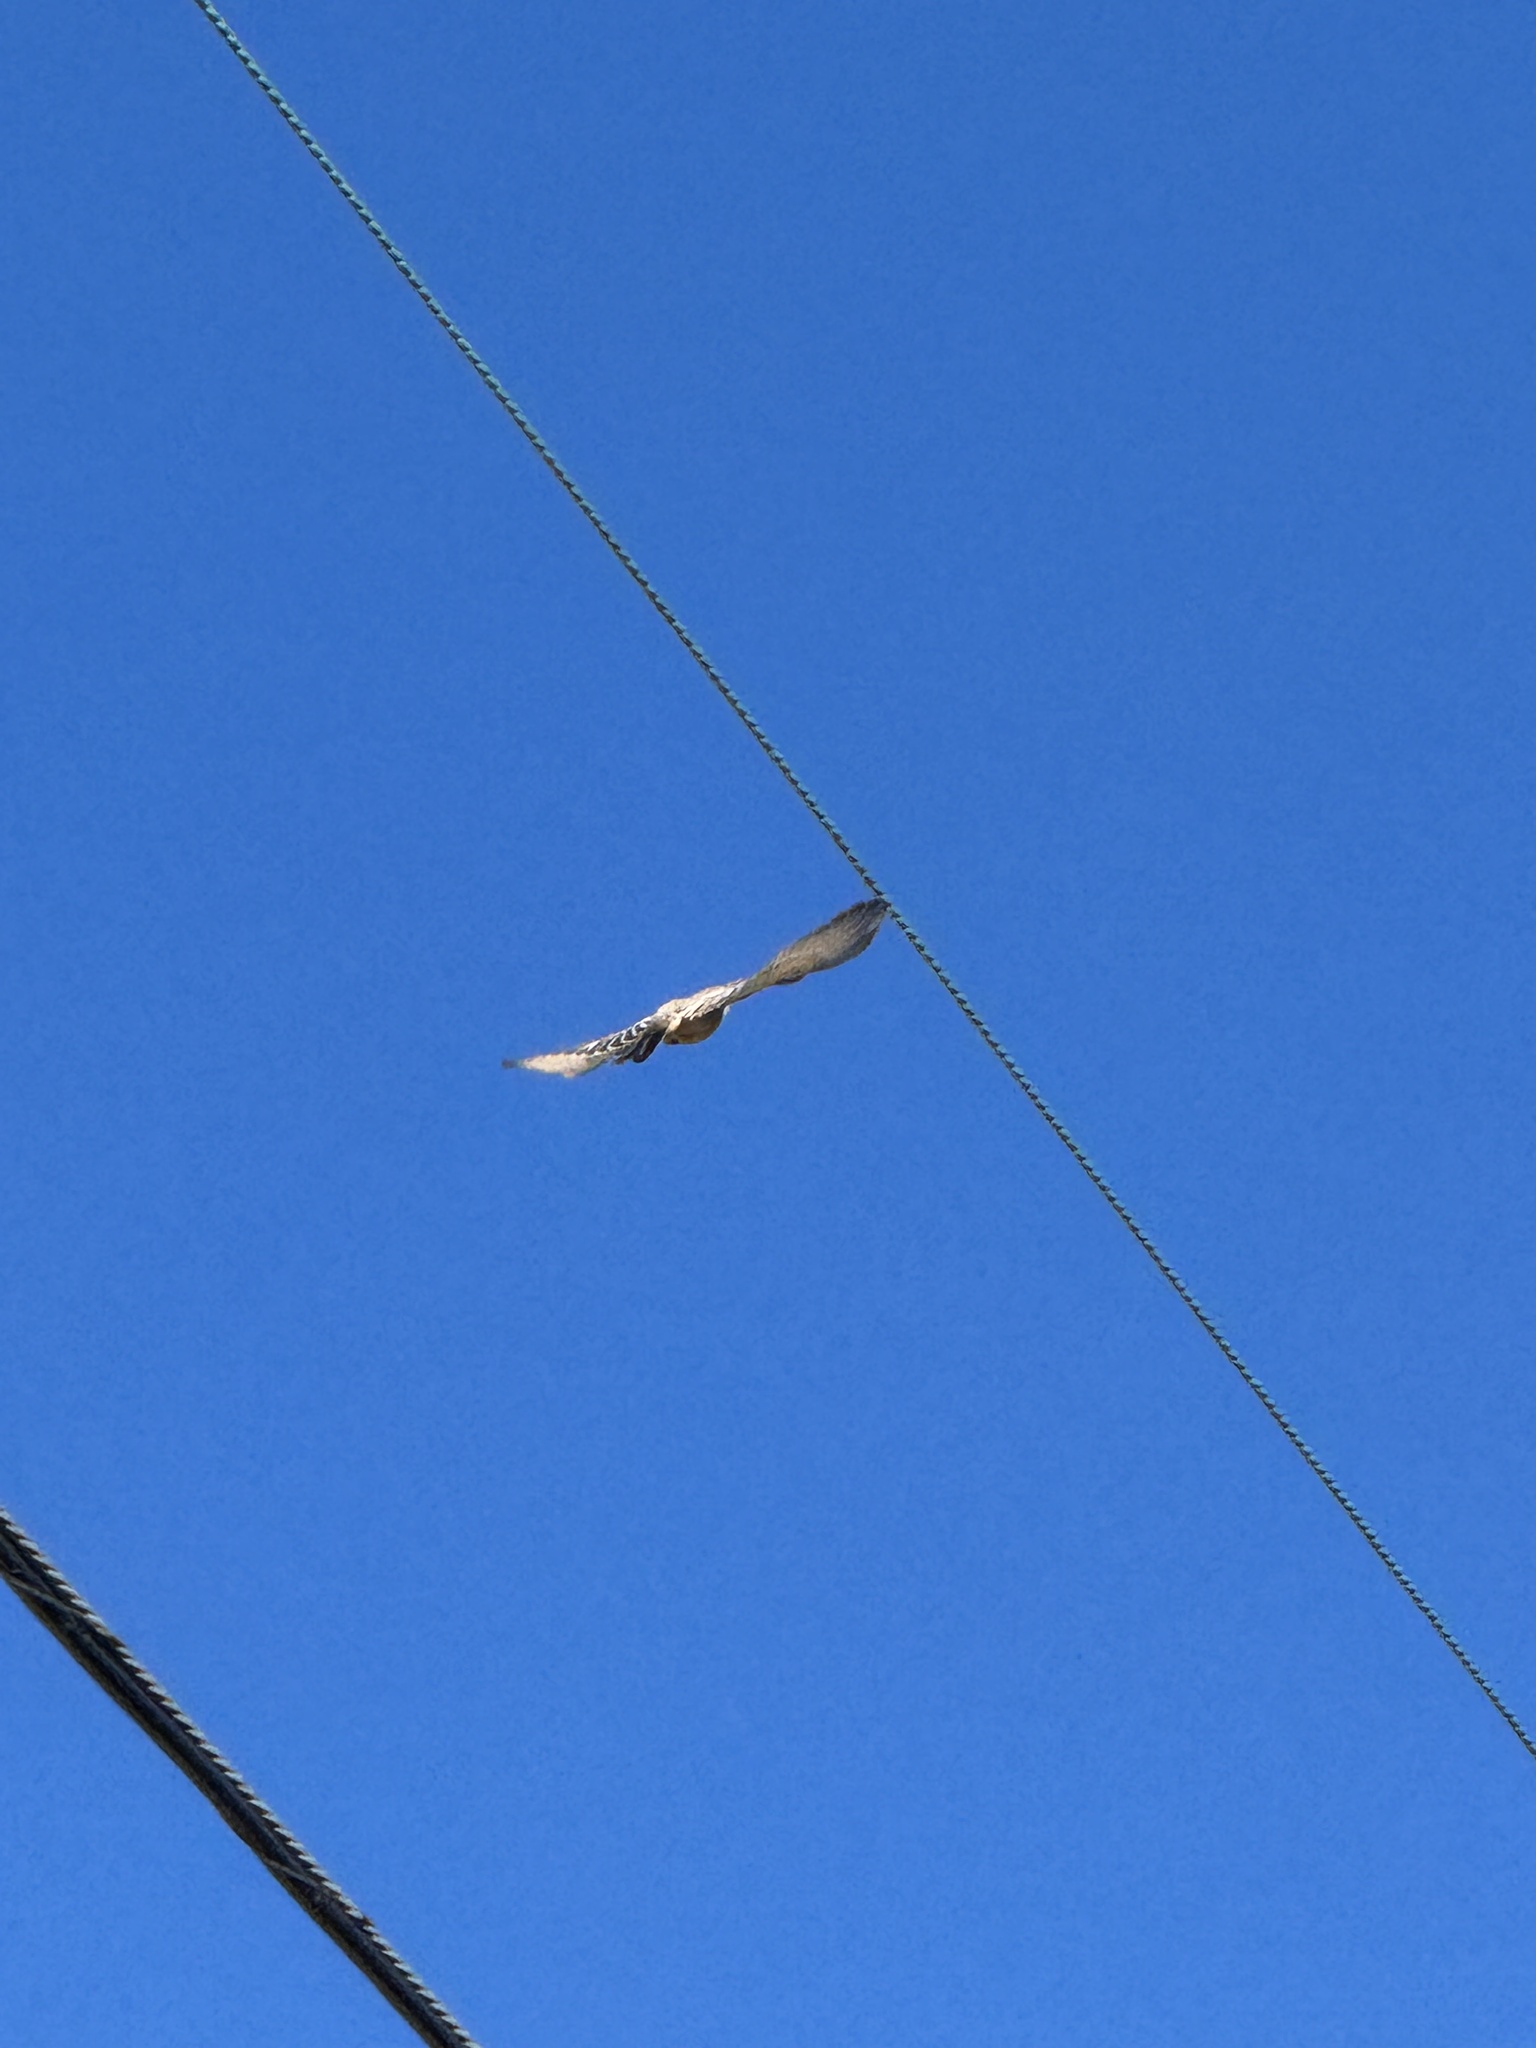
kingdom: Animalia
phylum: Chordata
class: Aves
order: Passeriformes
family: Tyrannidae
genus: Sayornis
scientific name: Sayornis saya
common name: Say's phoebe
